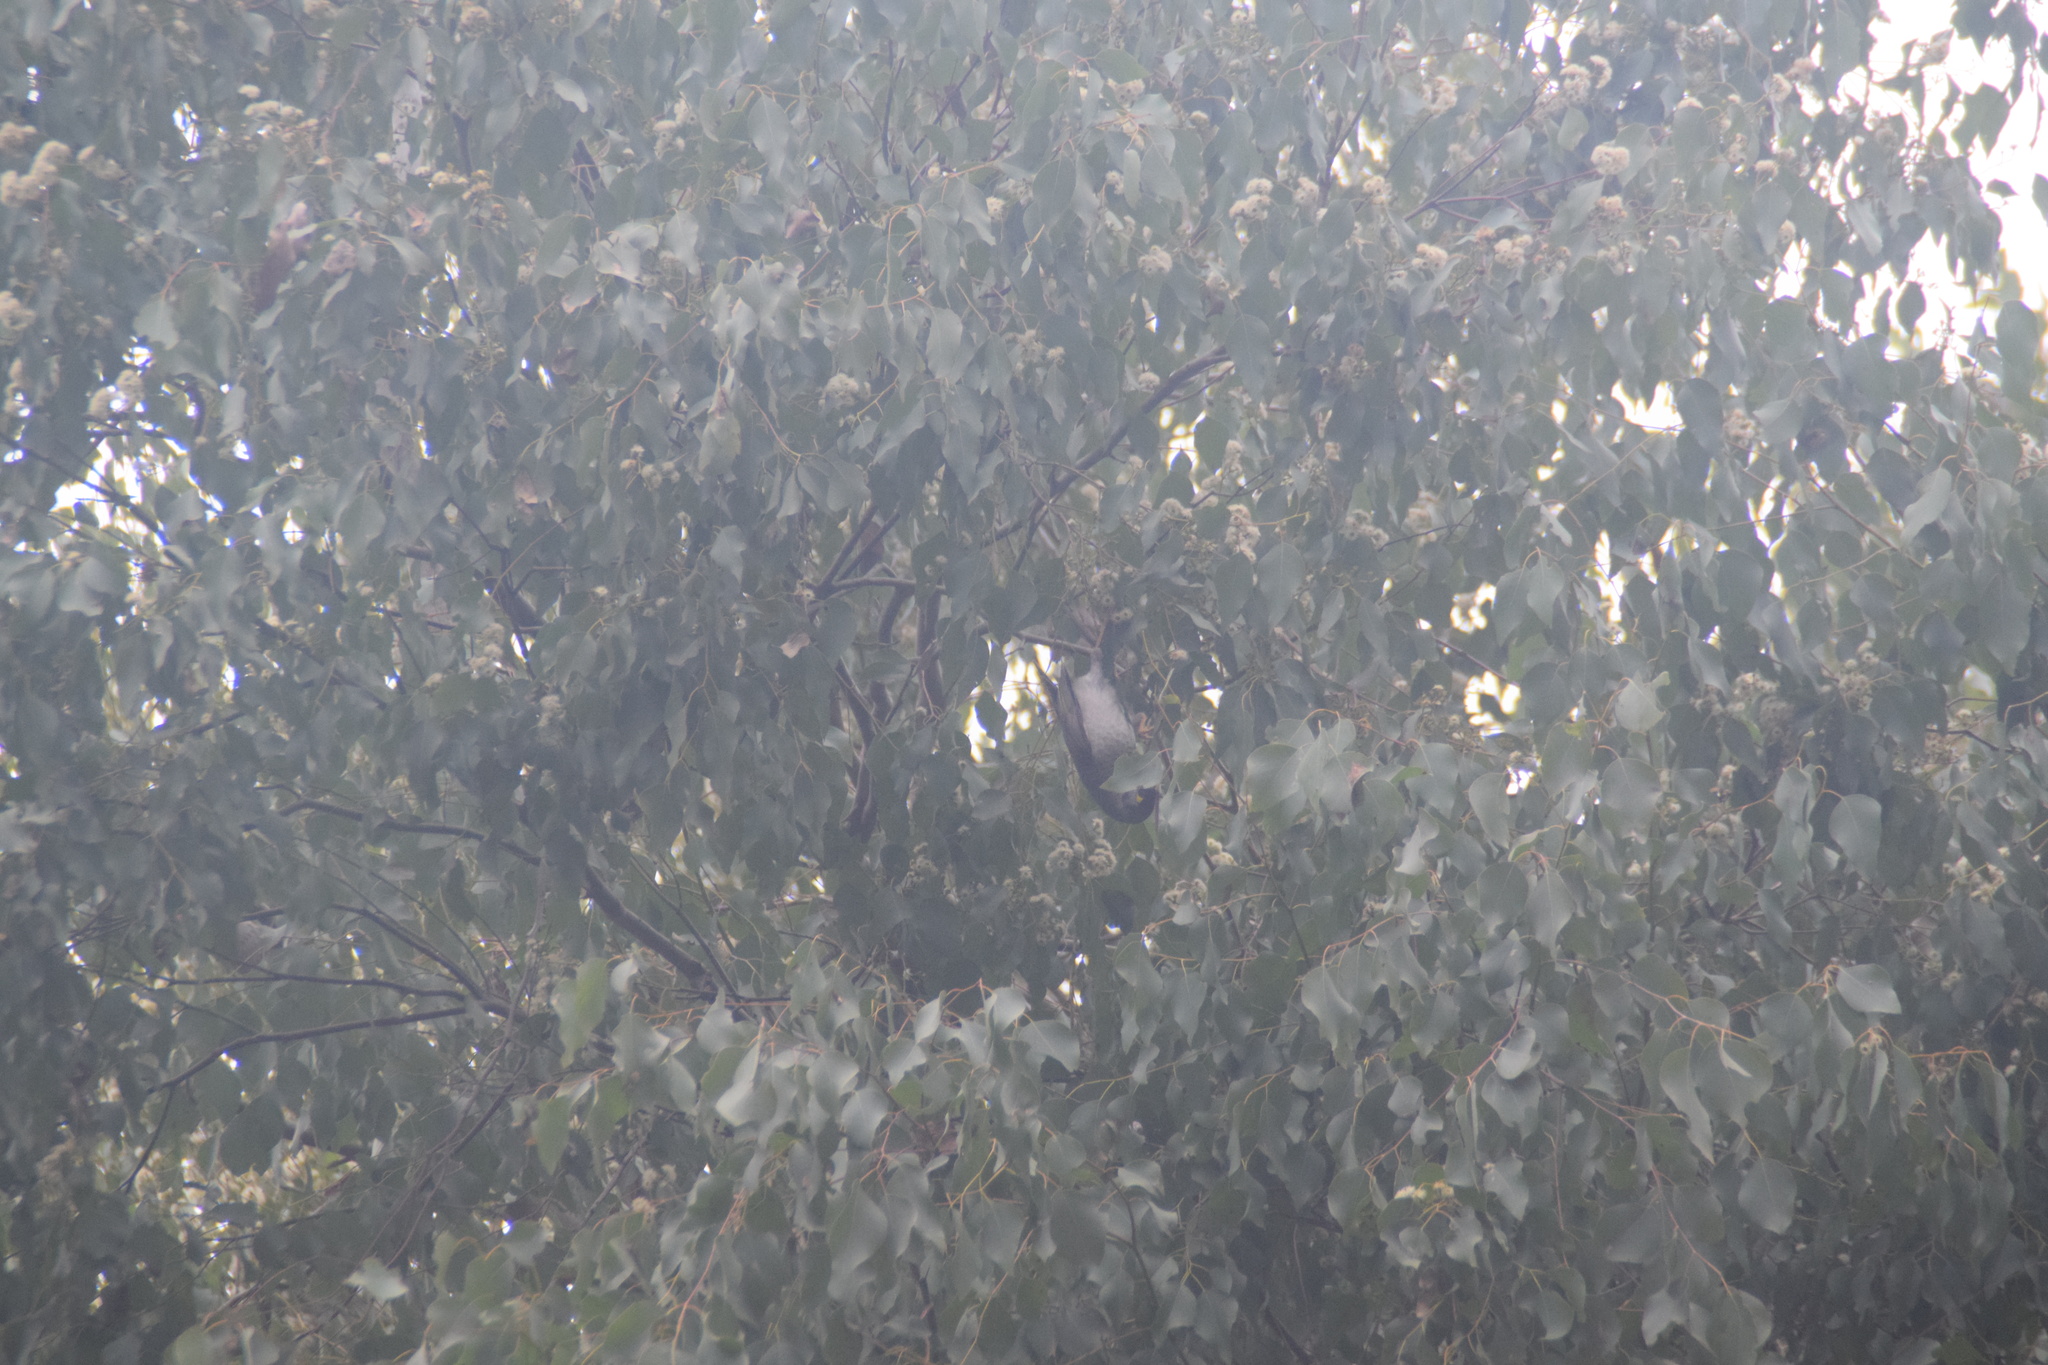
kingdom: Animalia
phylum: Chordata
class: Aves
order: Passeriformes
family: Meliphagidae
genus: Manorina
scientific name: Manorina melanocephala
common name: Noisy miner
